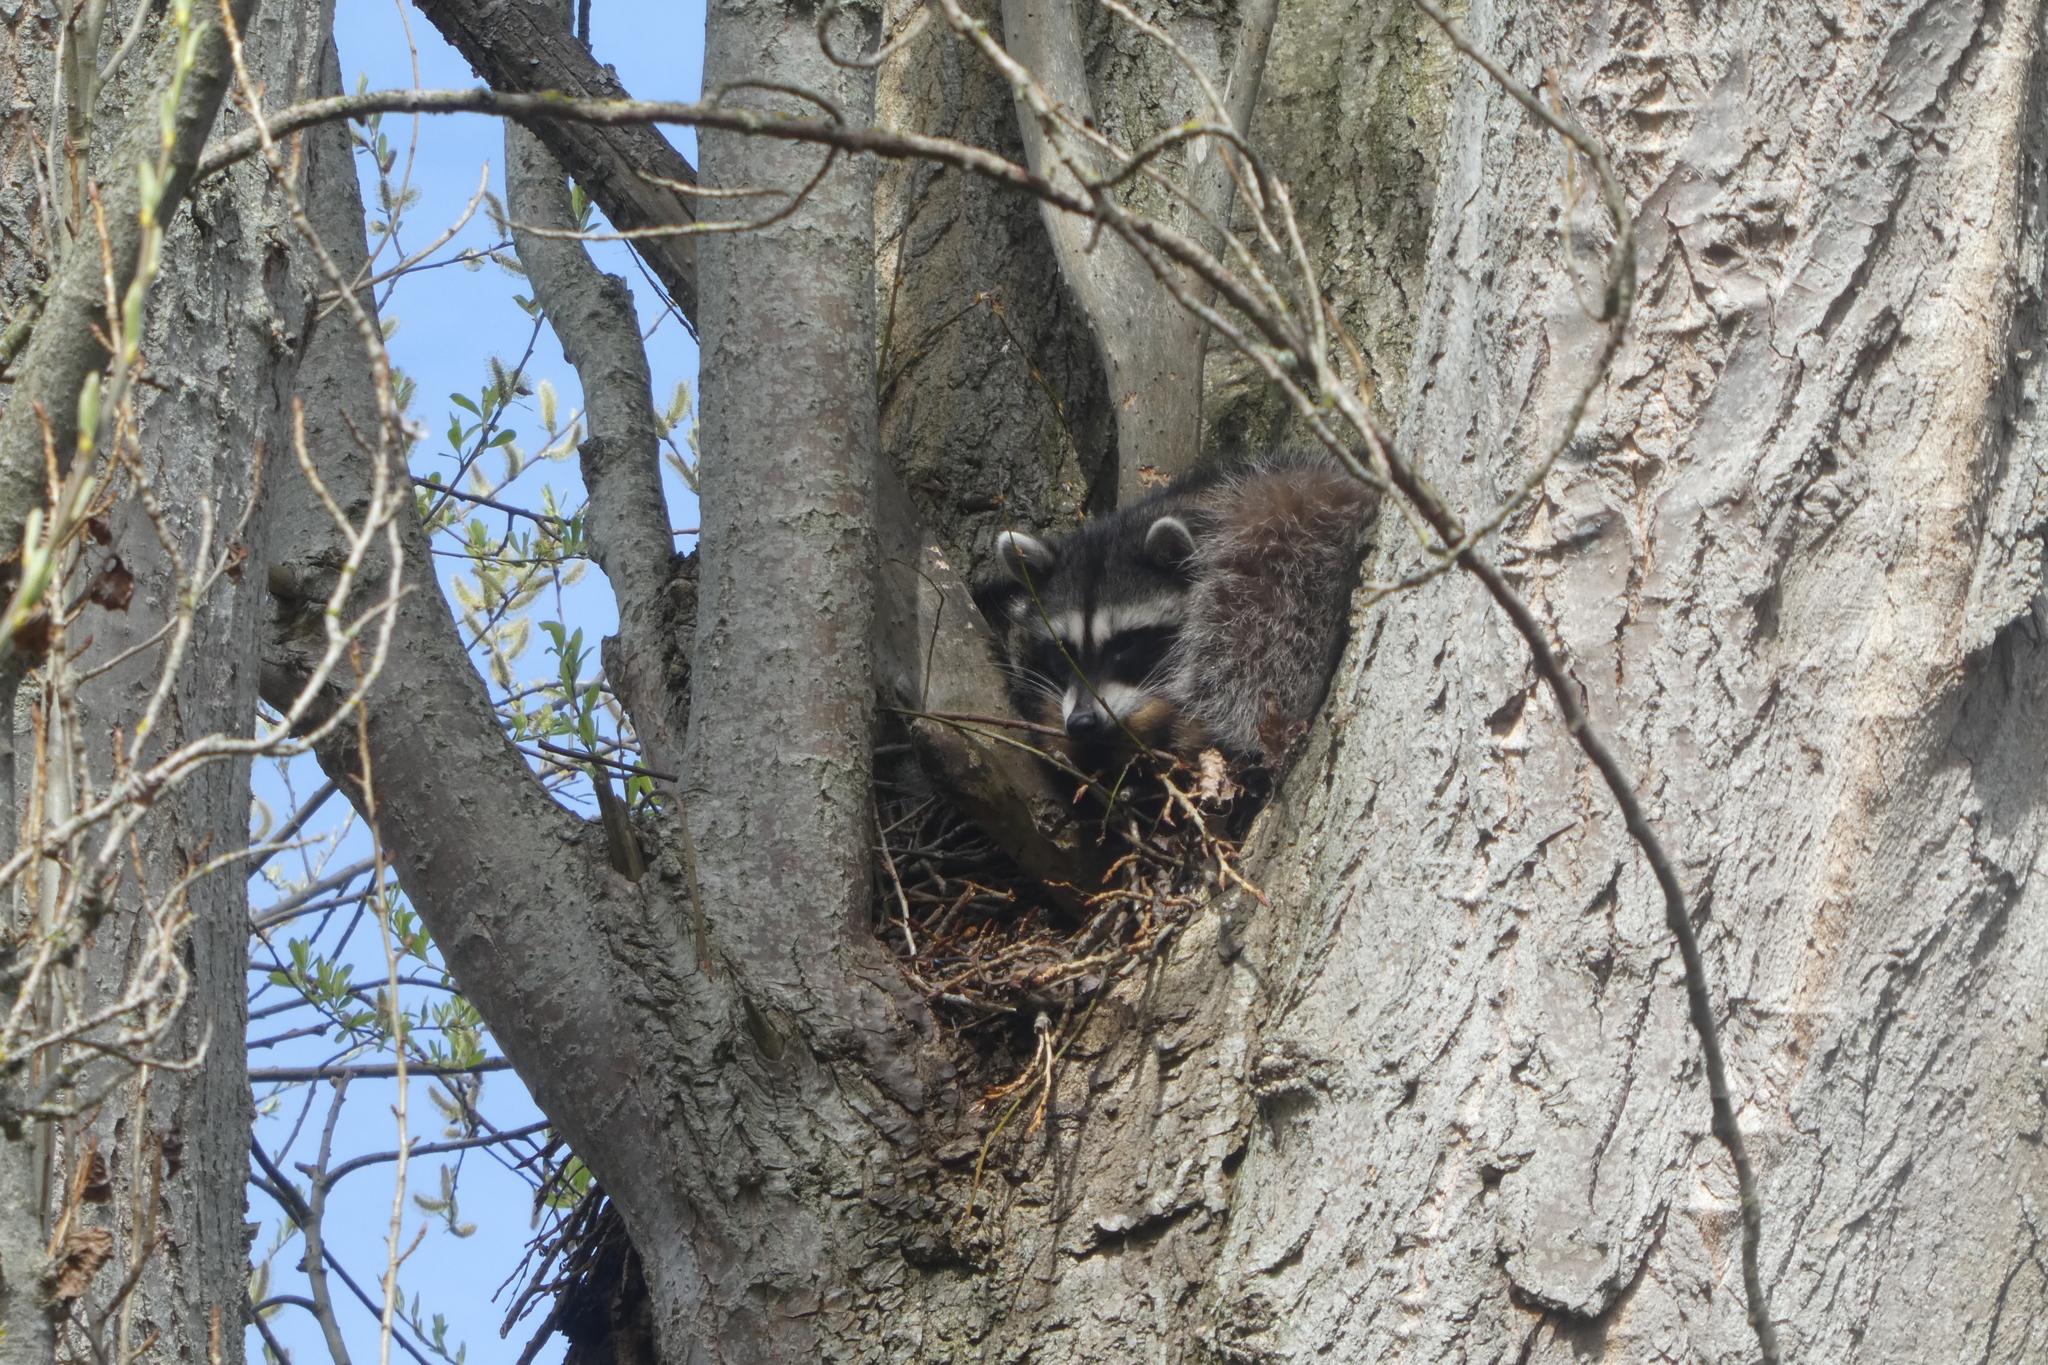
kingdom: Animalia
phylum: Chordata
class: Mammalia
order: Carnivora
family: Procyonidae
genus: Procyon
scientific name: Procyon lotor
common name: Raccoon
